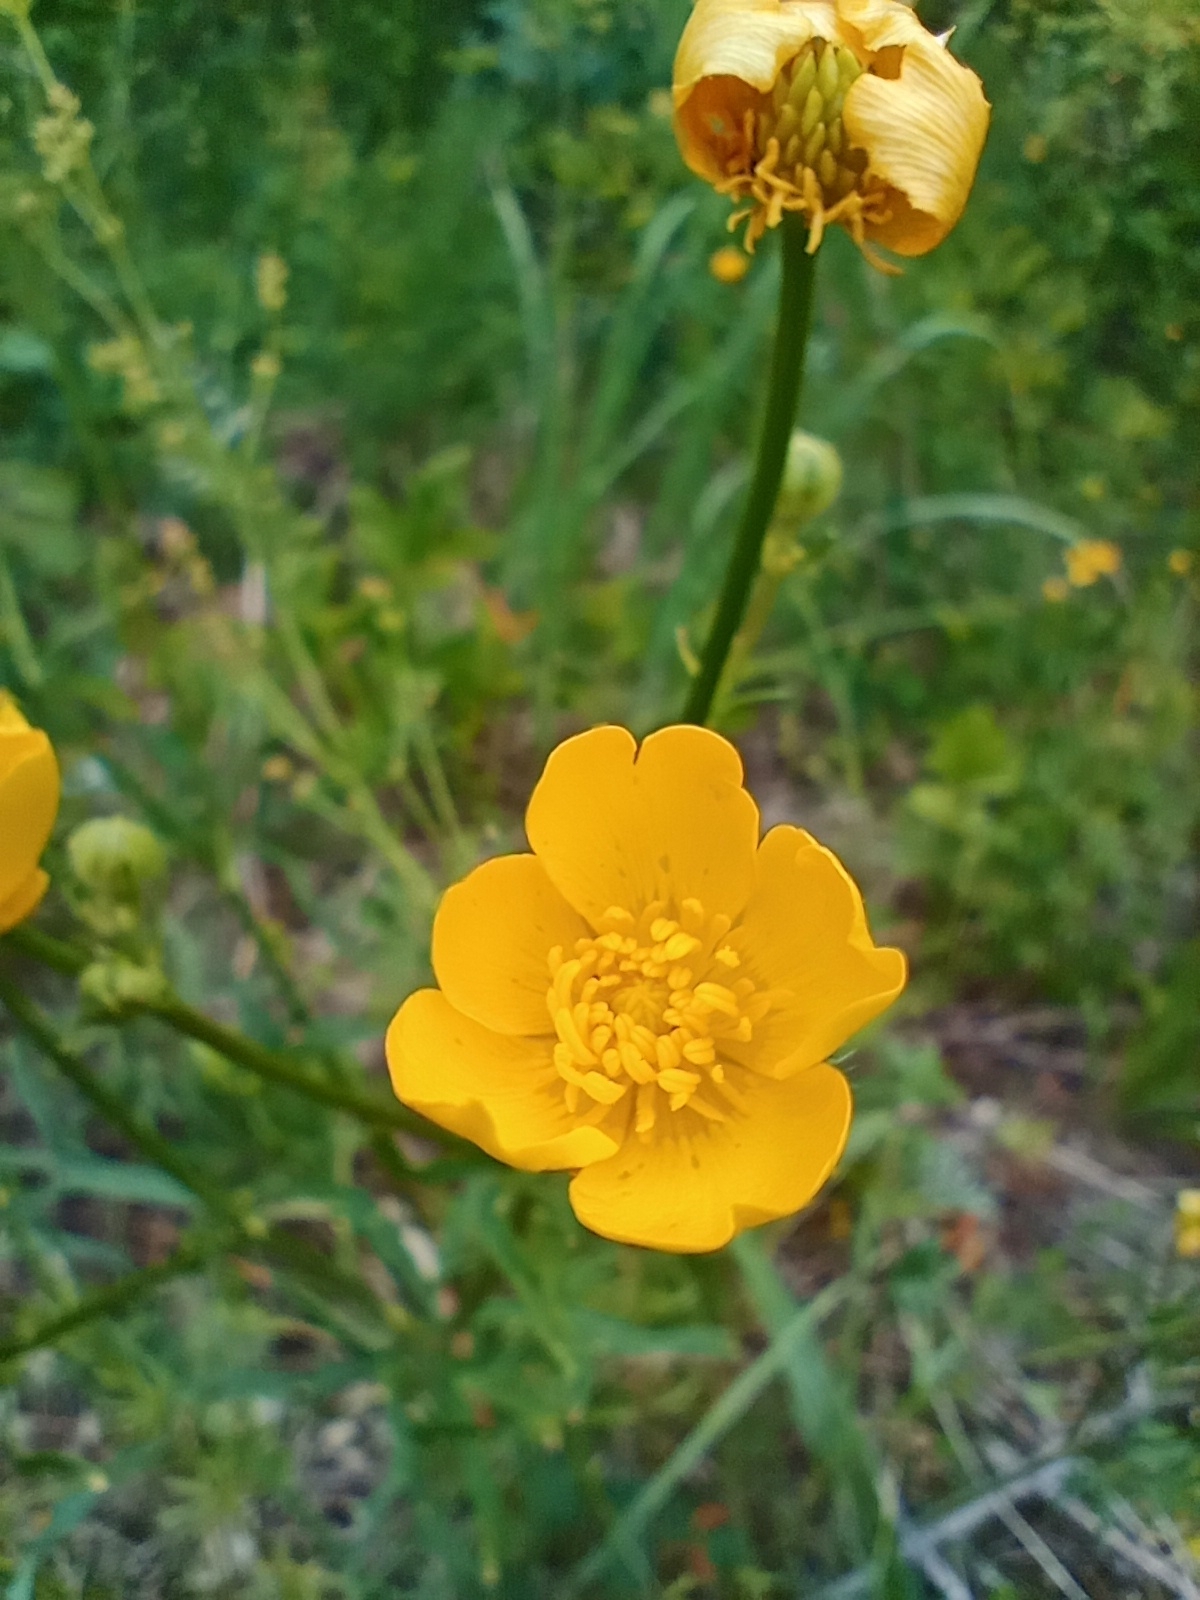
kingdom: Plantae
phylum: Tracheophyta
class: Magnoliopsida
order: Ranunculales
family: Ranunculaceae
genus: Ranunculus
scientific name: Ranunculus polyanthemos
